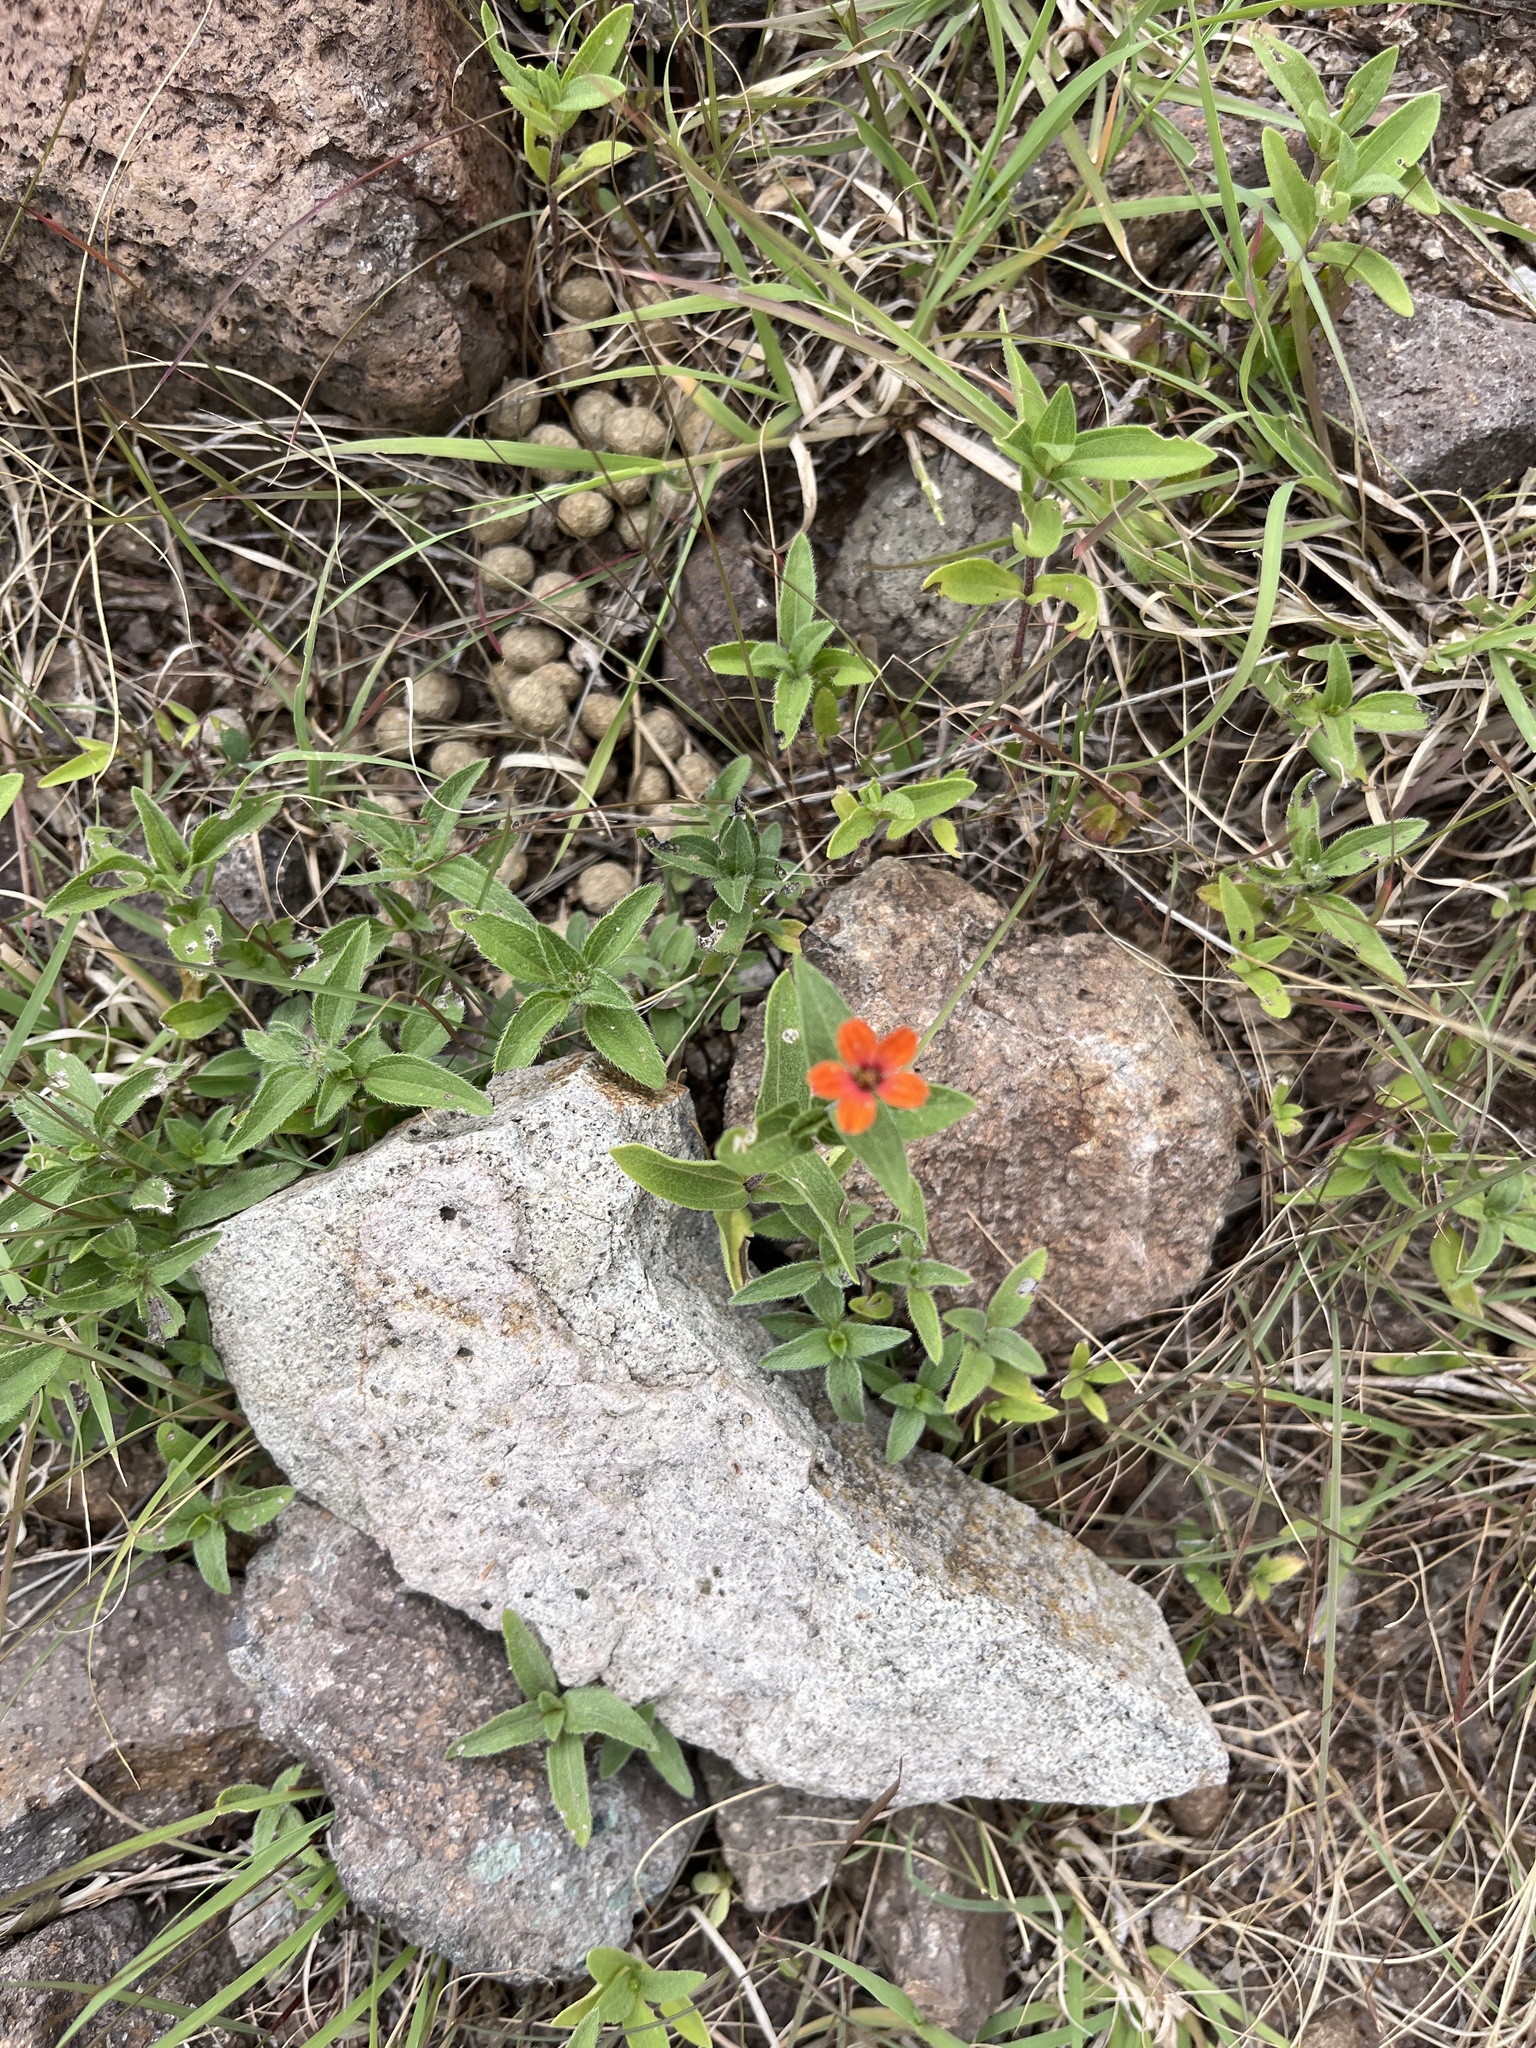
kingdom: Plantae
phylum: Tracheophyta
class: Magnoliopsida
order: Asterales
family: Asteraceae
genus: Zinnia
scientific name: Zinnia peruviana
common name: Peruvian zinnia
